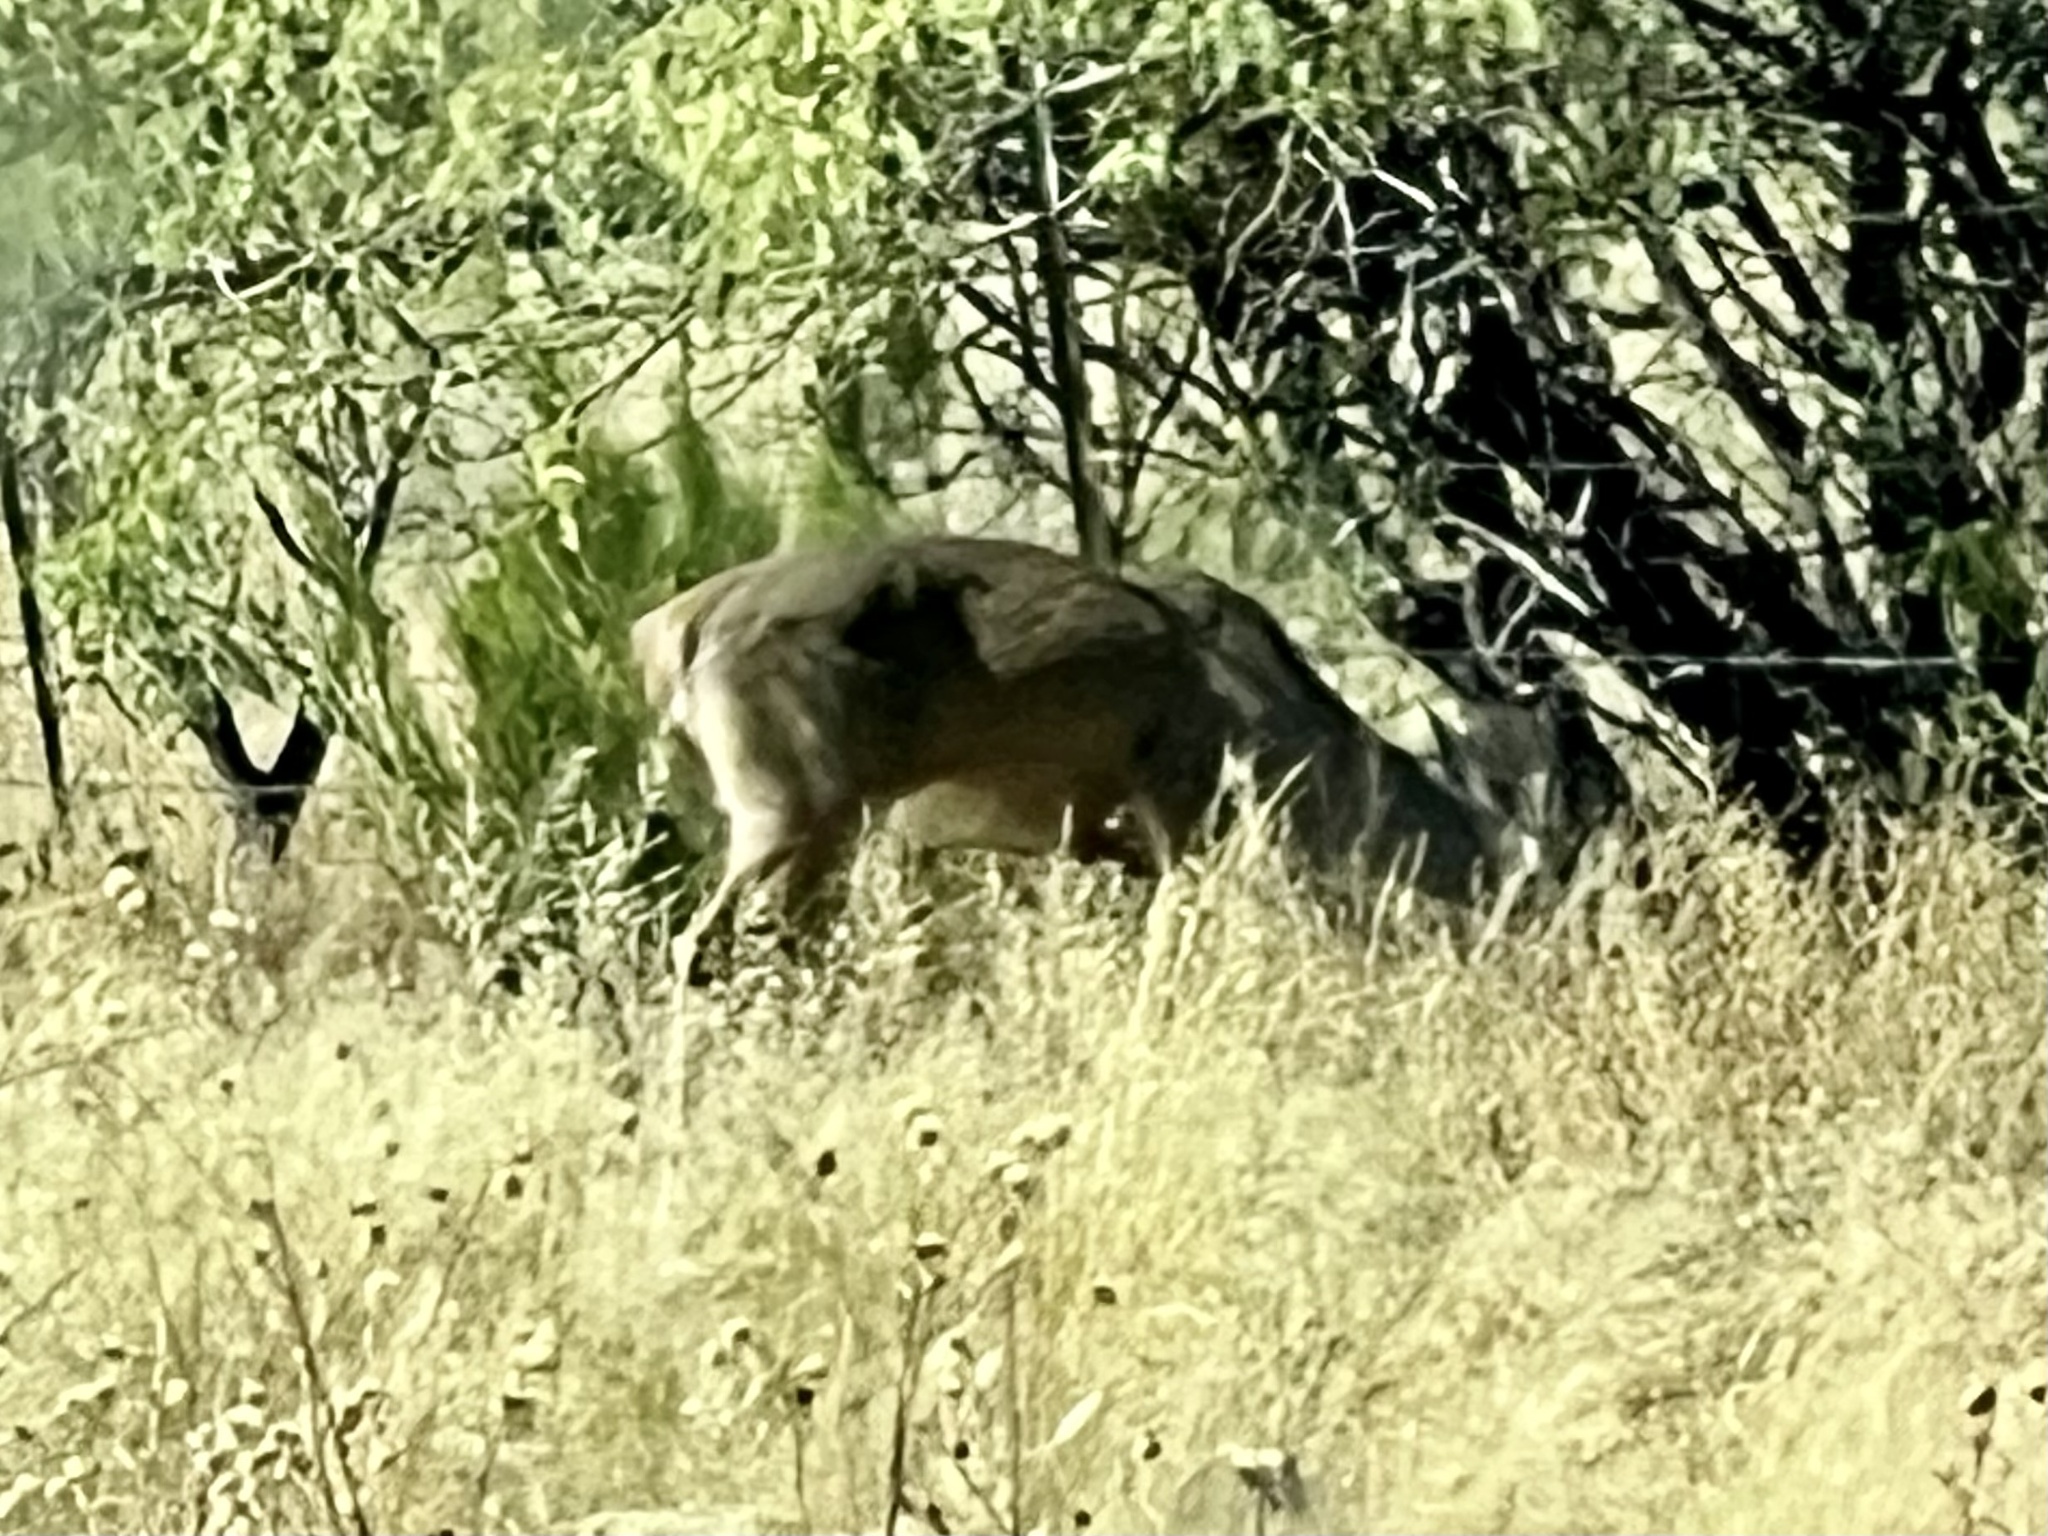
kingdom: Animalia
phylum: Chordata
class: Mammalia
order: Artiodactyla
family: Cervidae
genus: Odocoileus
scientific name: Odocoileus virginianus
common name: White-tailed deer
